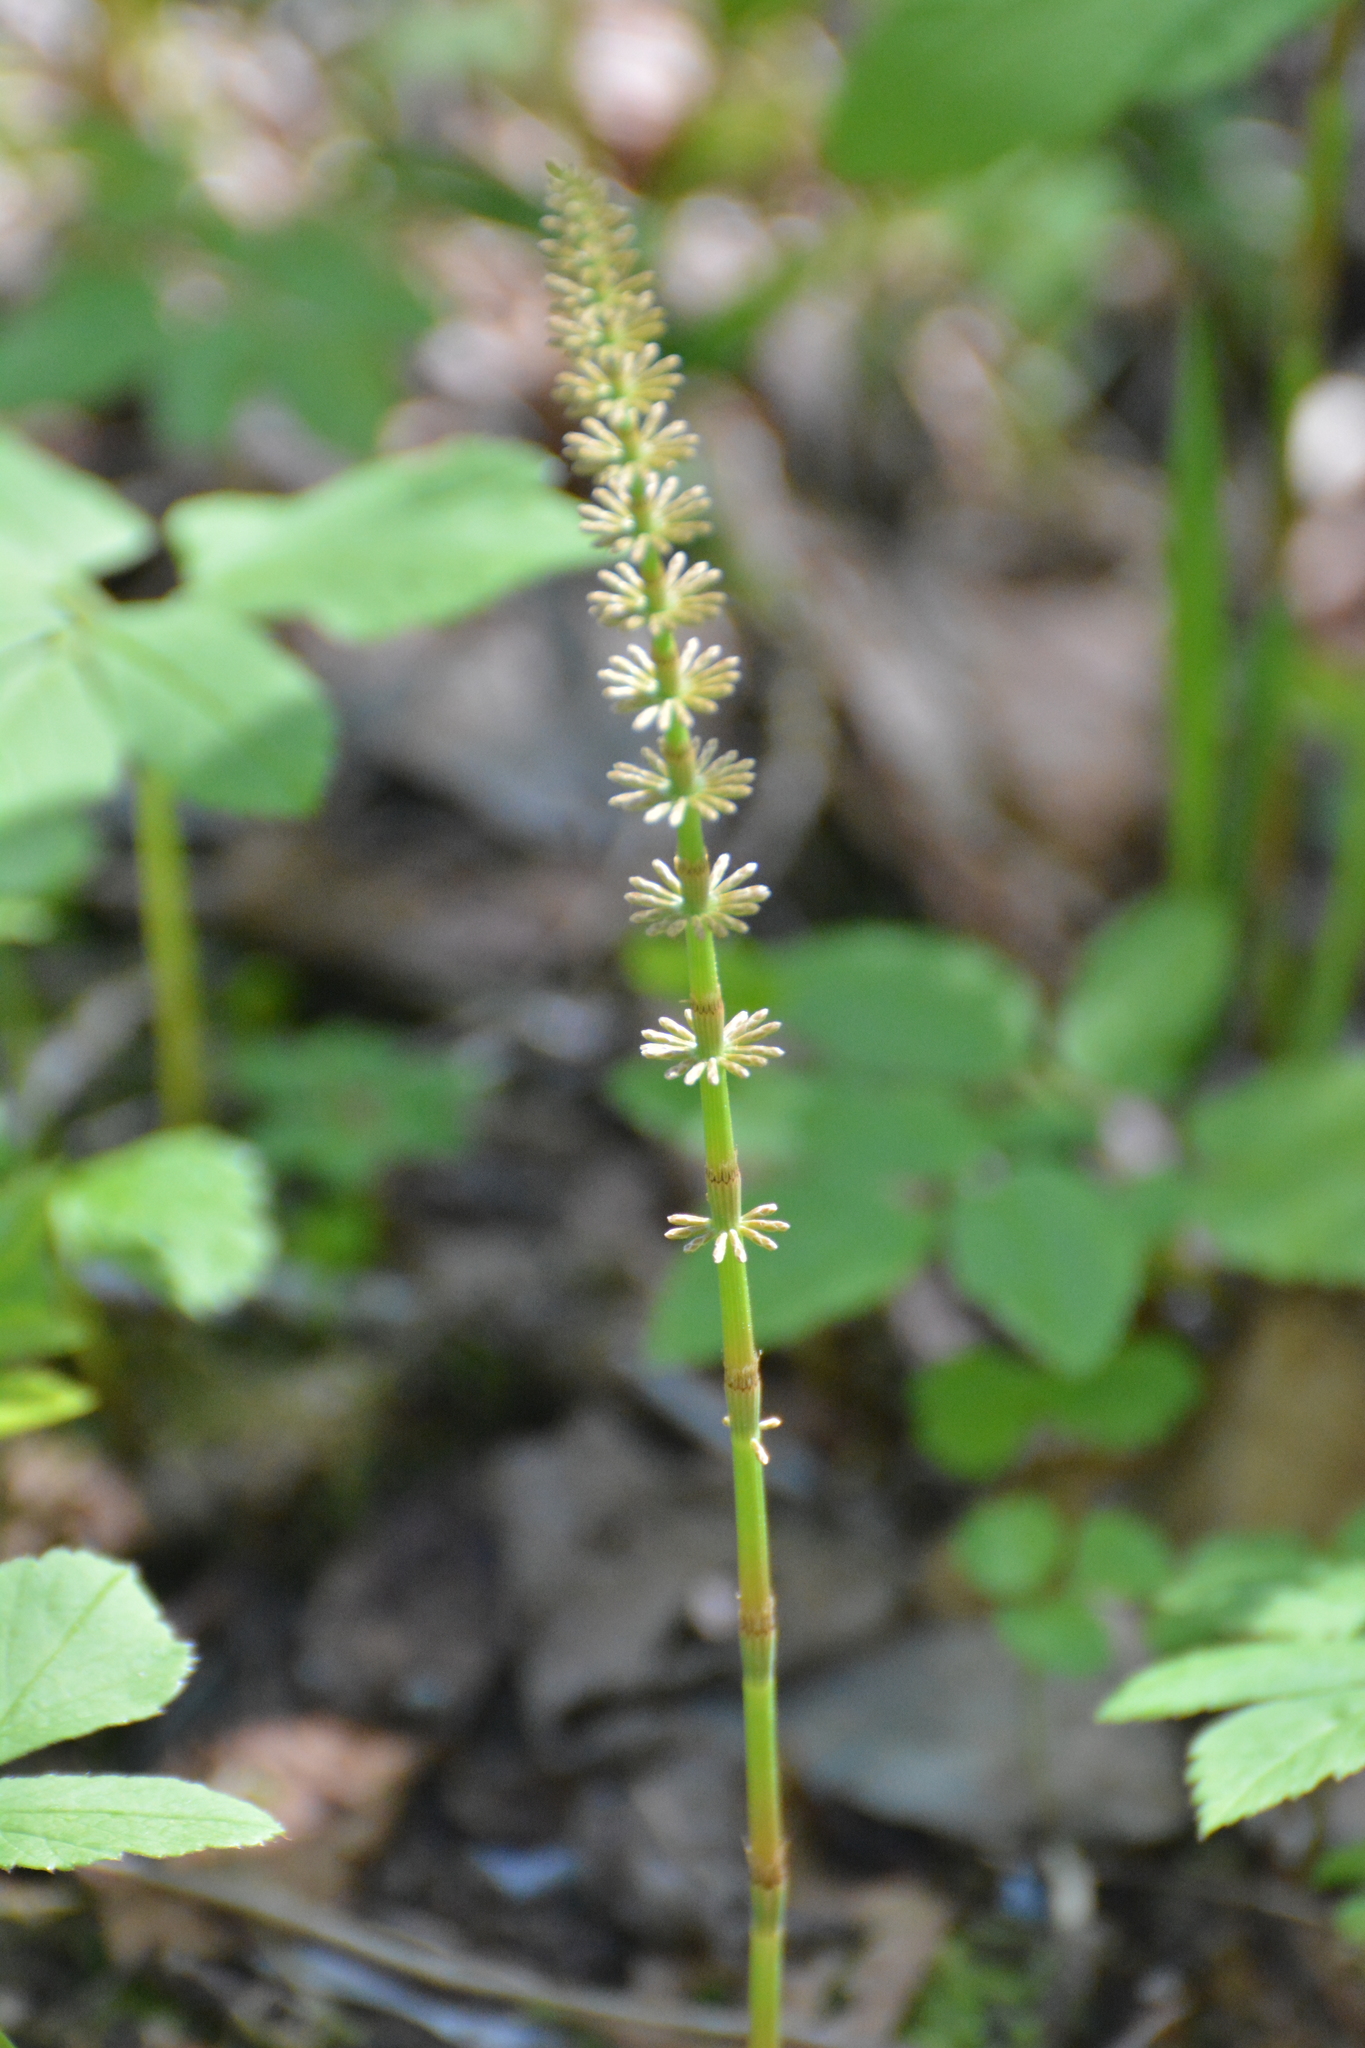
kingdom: Plantae
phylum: Tracheophyta
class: Polypodiopsida
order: Equisetales
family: Equisetaceae
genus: Equisetum
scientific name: Equisetum pratense
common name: Meadow horsetail
